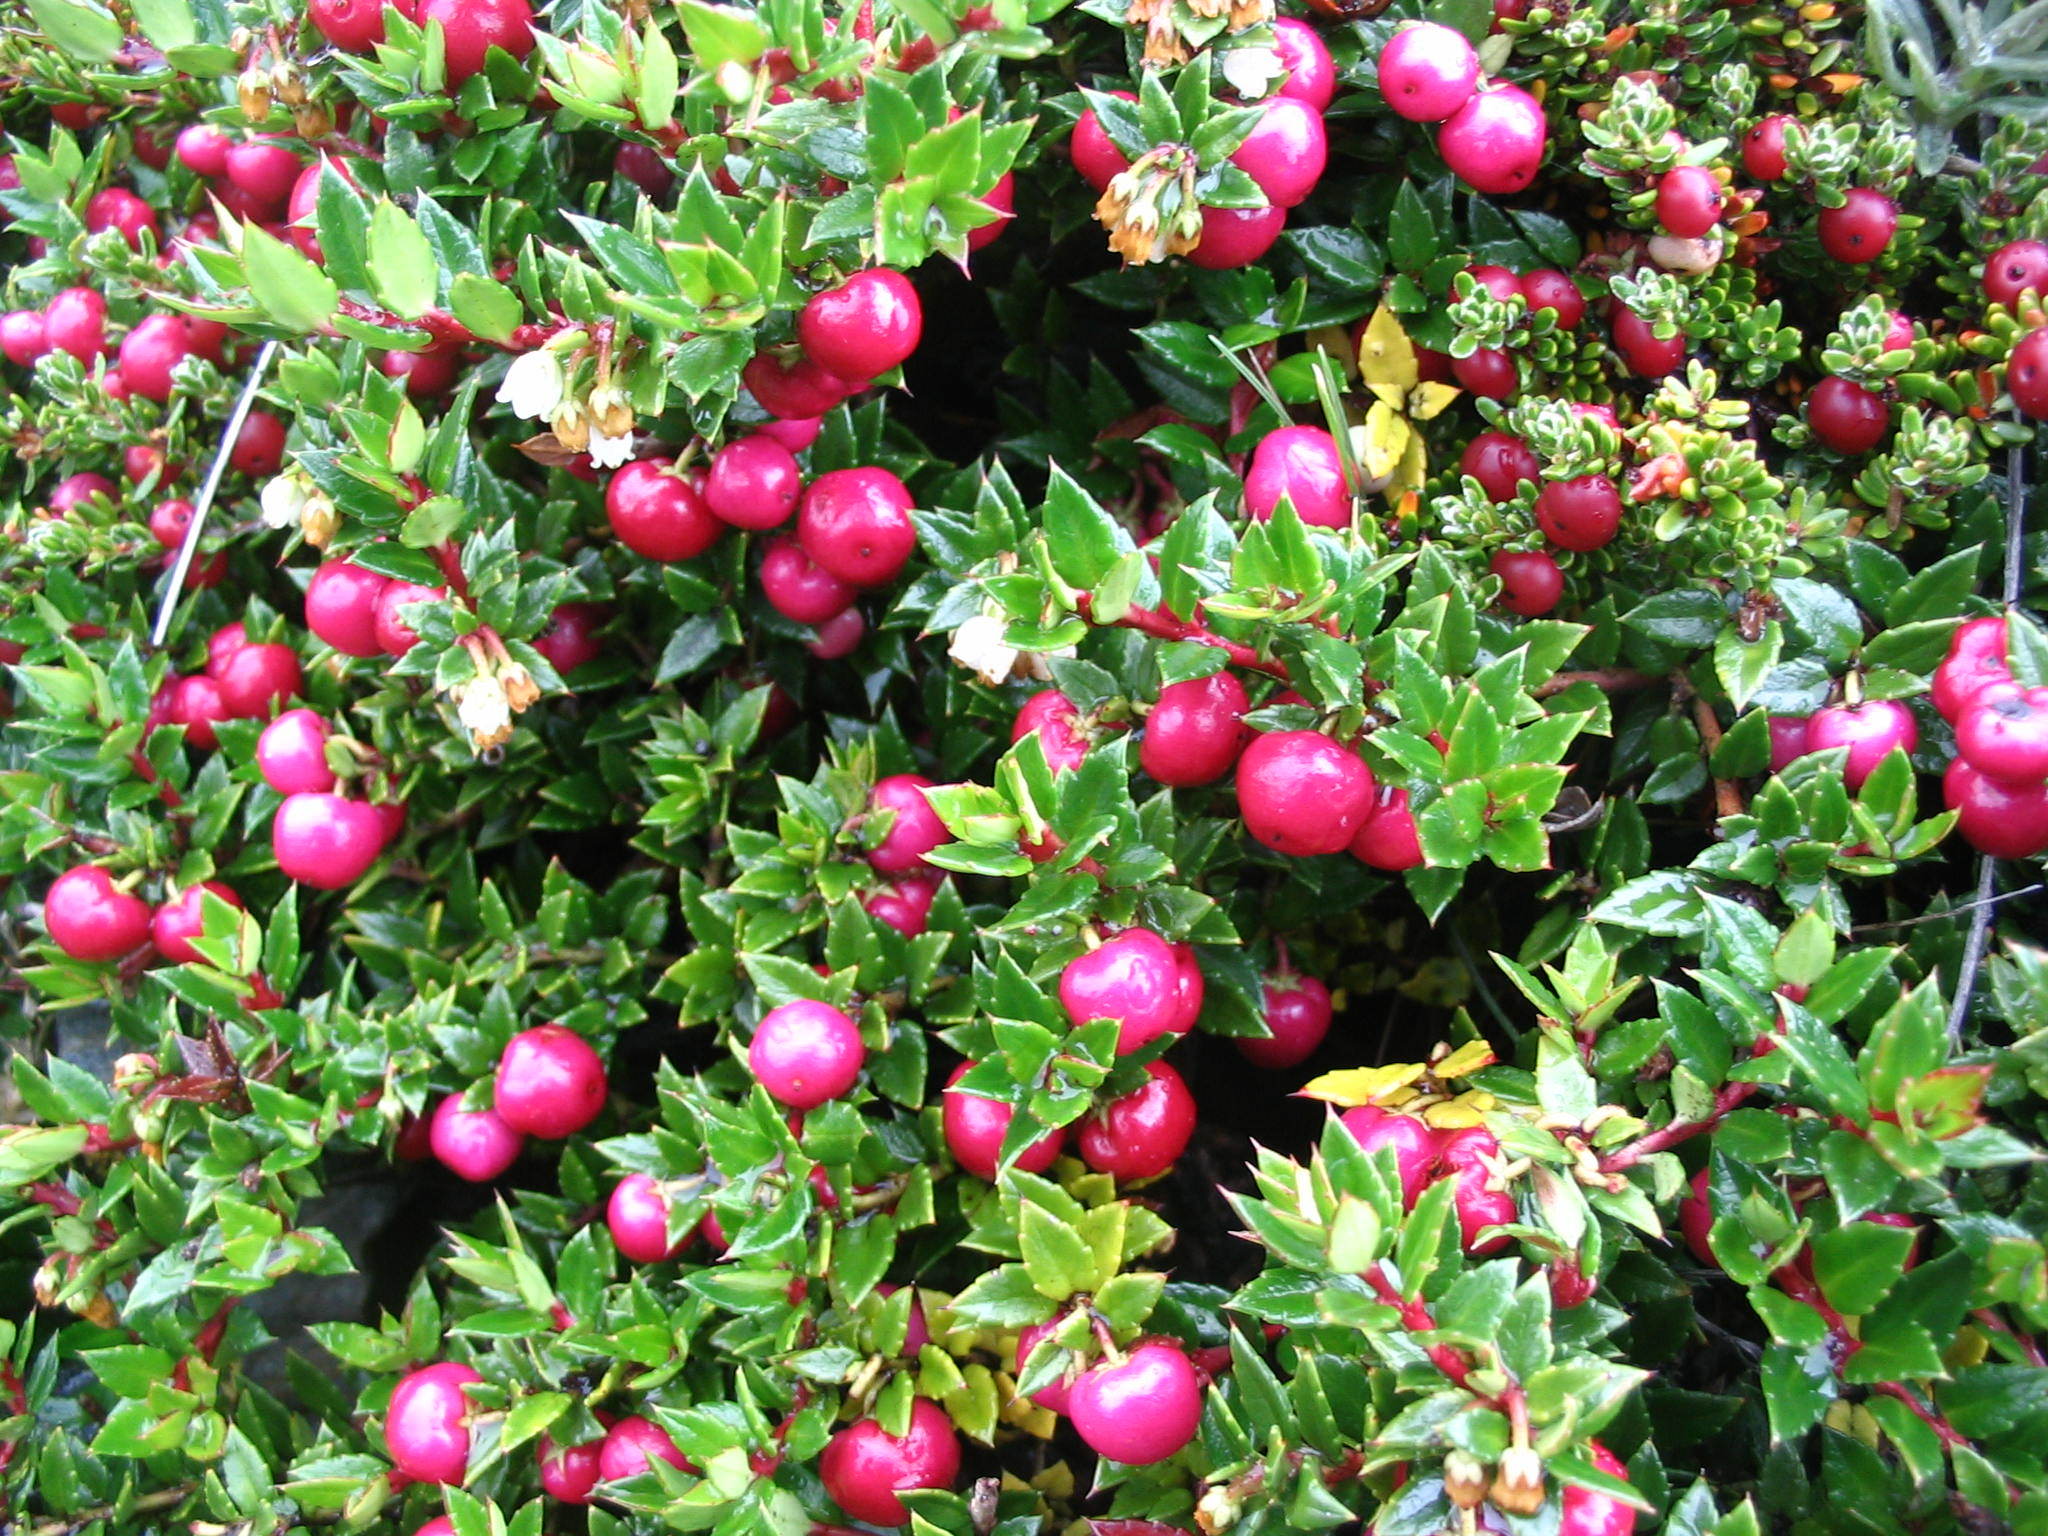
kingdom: Plantae
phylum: Tracheophyta
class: Magnoliopsida
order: Ericales
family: Ericaceae
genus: Gaultheria
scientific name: Gaultheria mucronata
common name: Prickly heath
